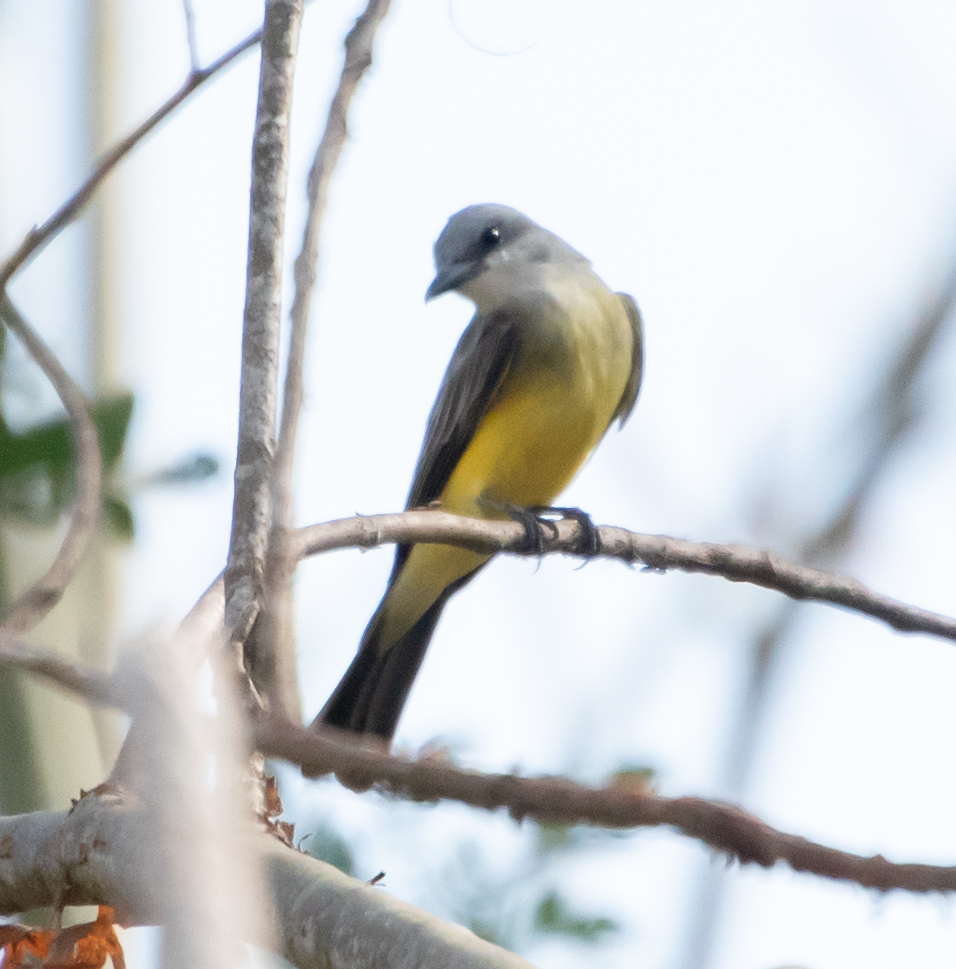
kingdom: Animalia
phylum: Chordata
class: Aves
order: Passeriformes
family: Tyrannidae
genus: Tyrannus
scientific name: Tyrannus melancholicus
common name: Tropical kingbird
